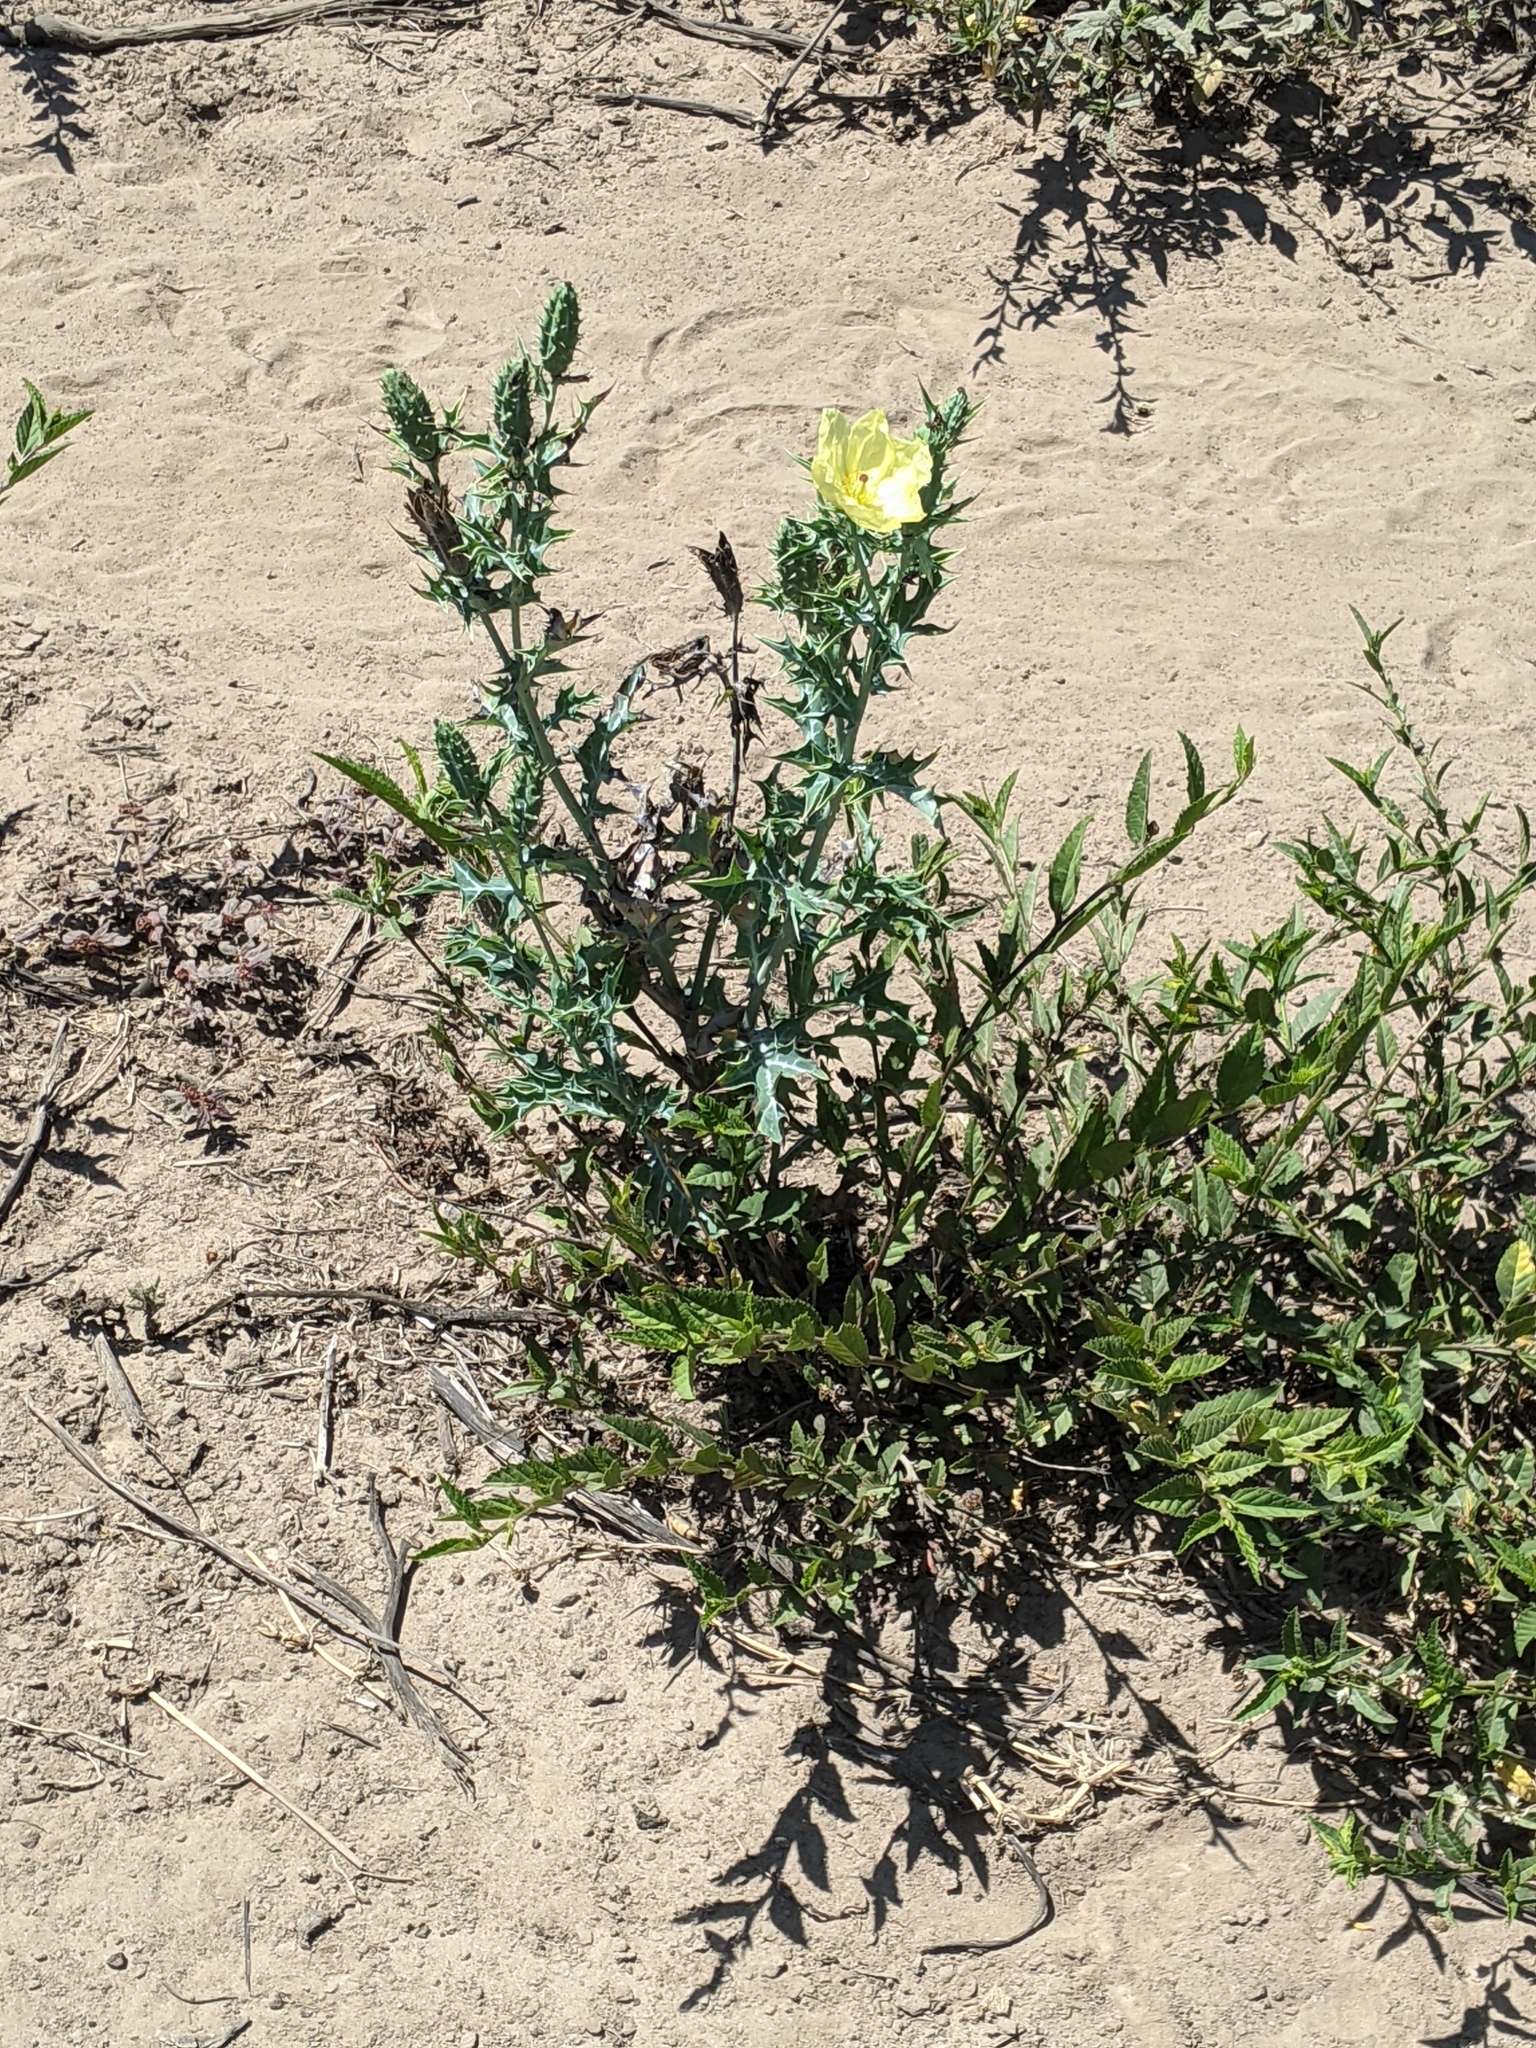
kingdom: Plantae
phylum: Tracheophyta
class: Magnoliopsida
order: Ranunculales
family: Papaveraceae
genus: Argemone
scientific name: Argemone ochroleuca
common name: White-flower mexican-poppy
